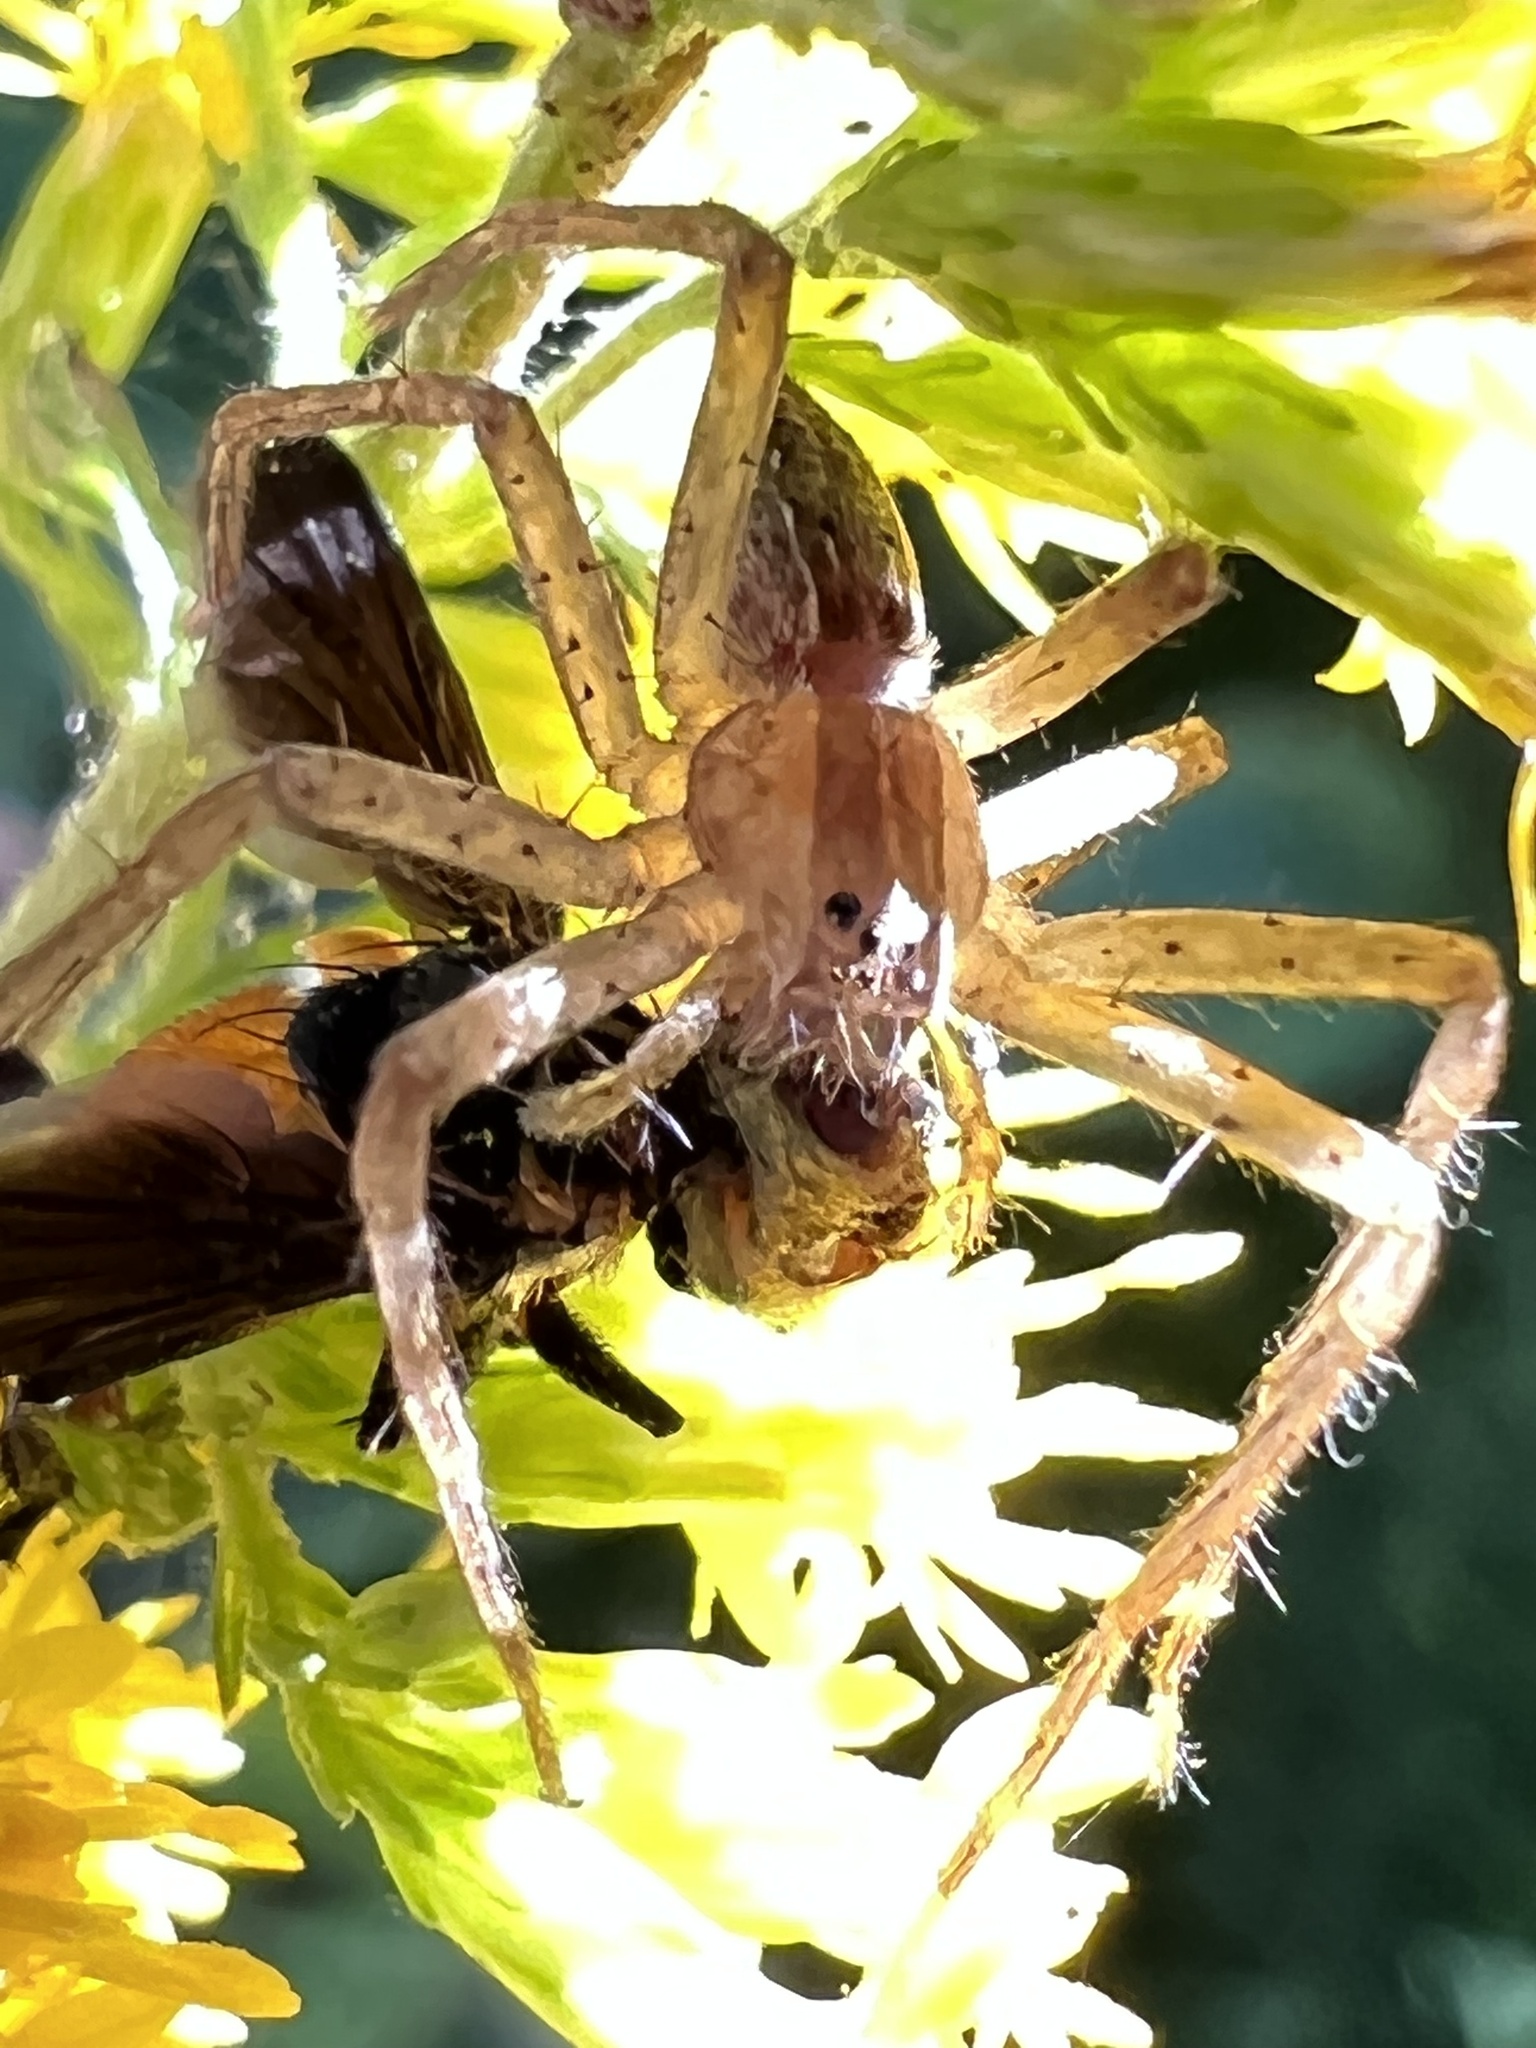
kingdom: Animalia
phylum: Arthropoda
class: Arachnida
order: Araneae
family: Pisauridae
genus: Pisaurina
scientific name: Pisaurina mira
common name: American nursery web spider
